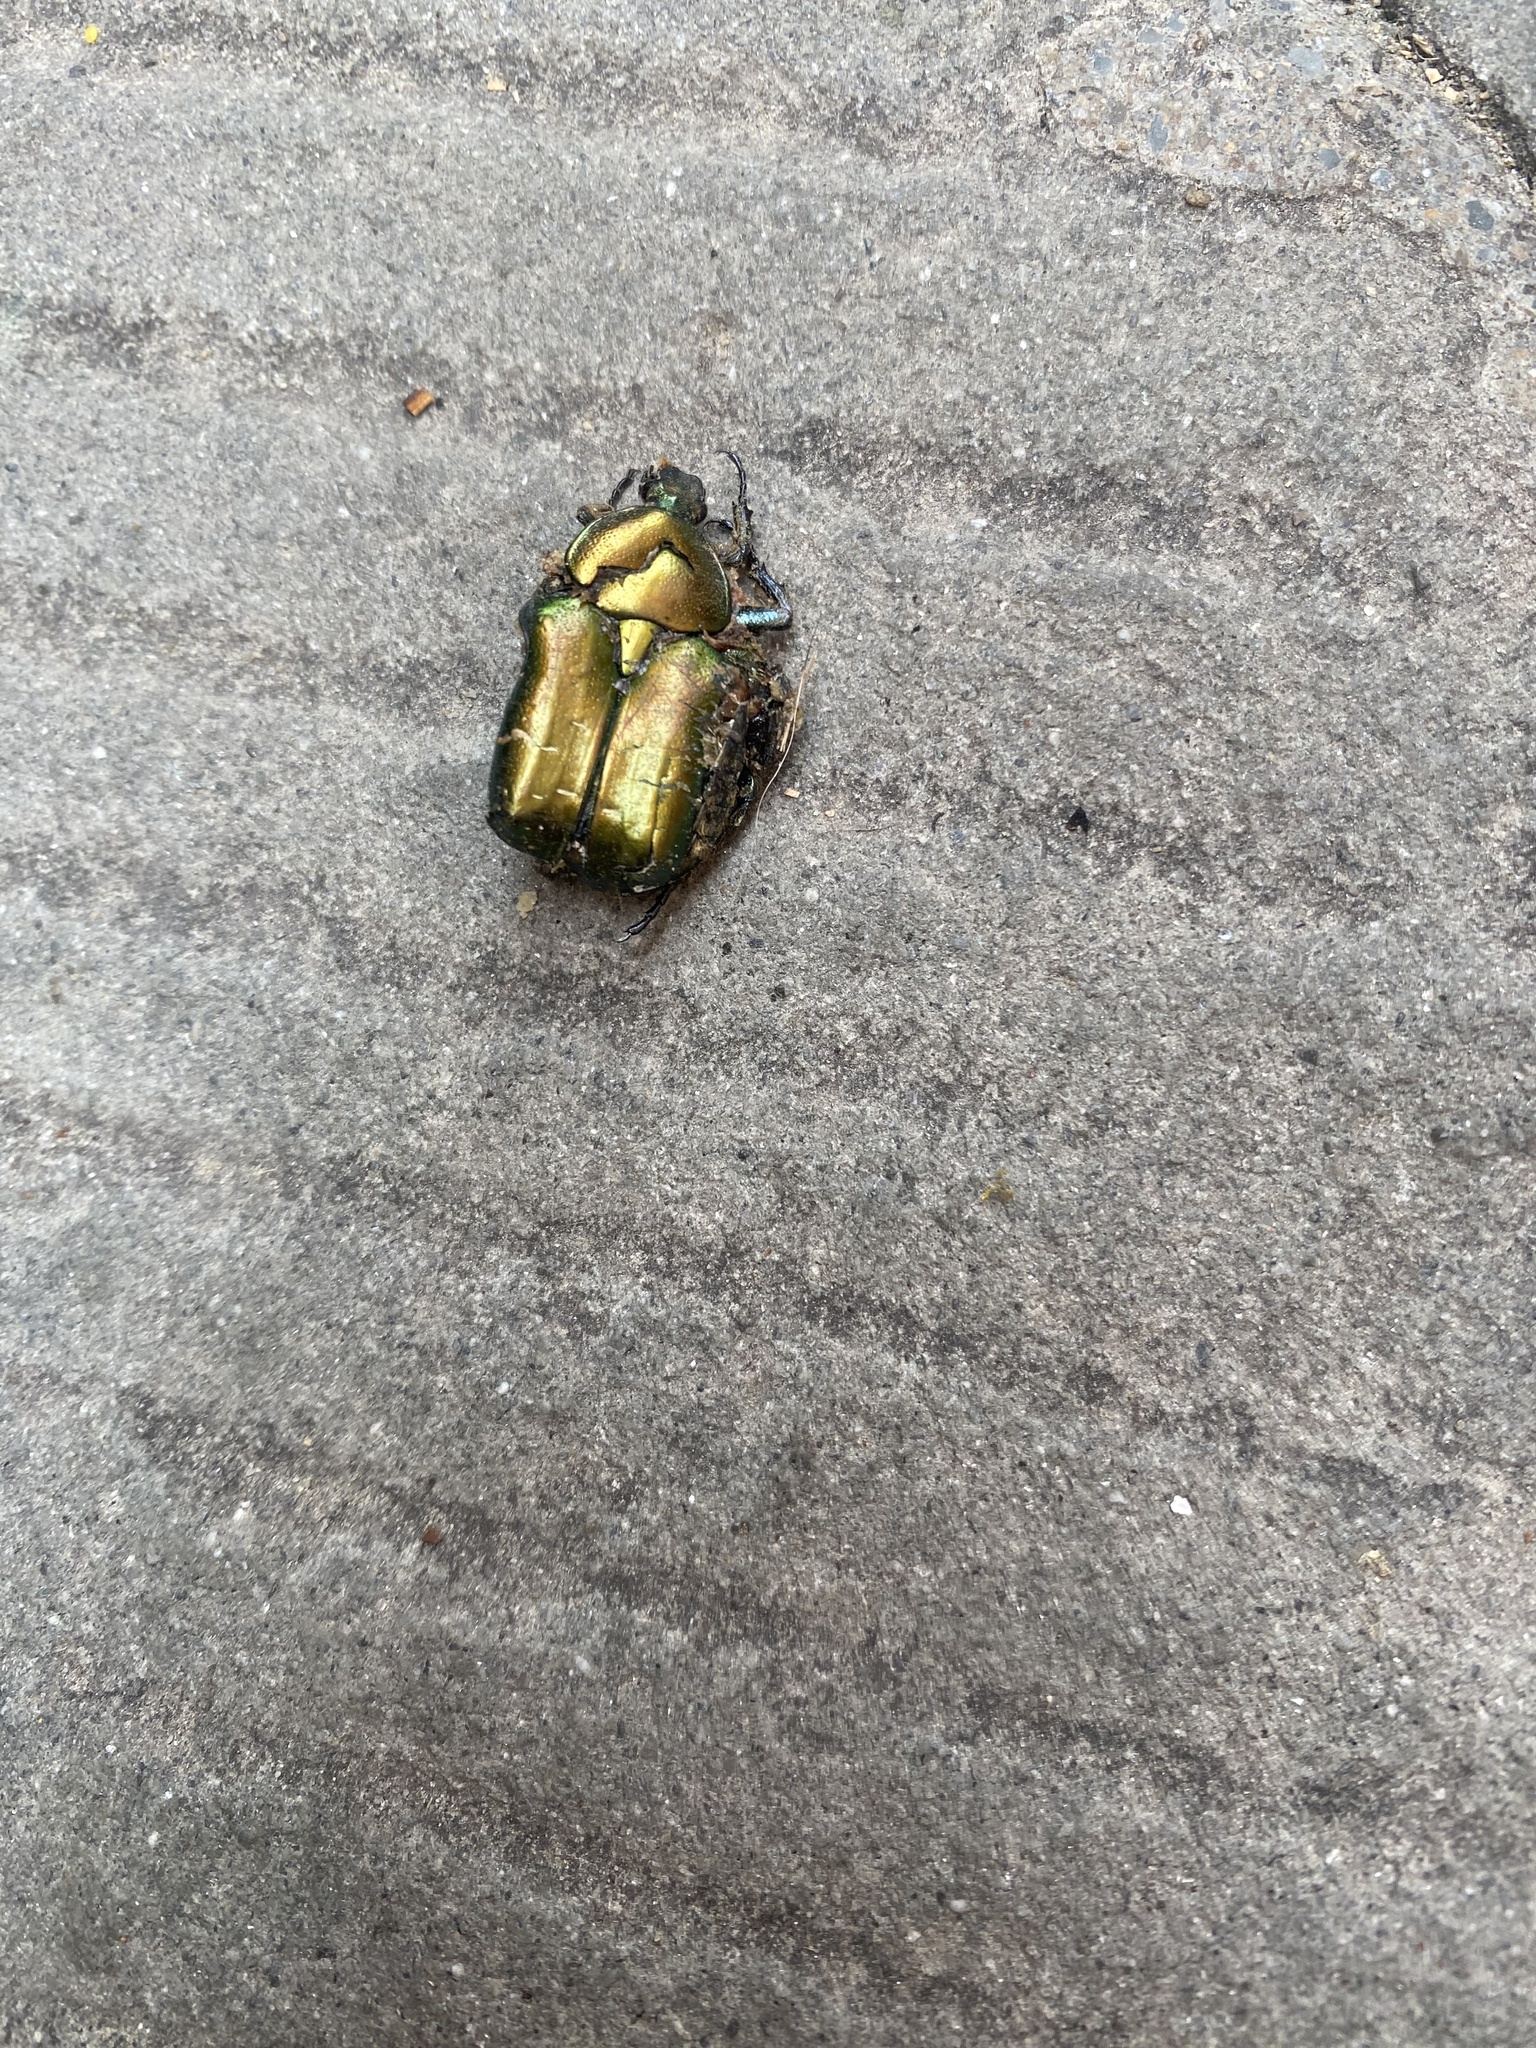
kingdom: Animalia
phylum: Arthropoda
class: Insecta
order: Coleoptera
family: Scarabaeidae
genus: Cetonia
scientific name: Cetonia aurata
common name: Rose chafer
